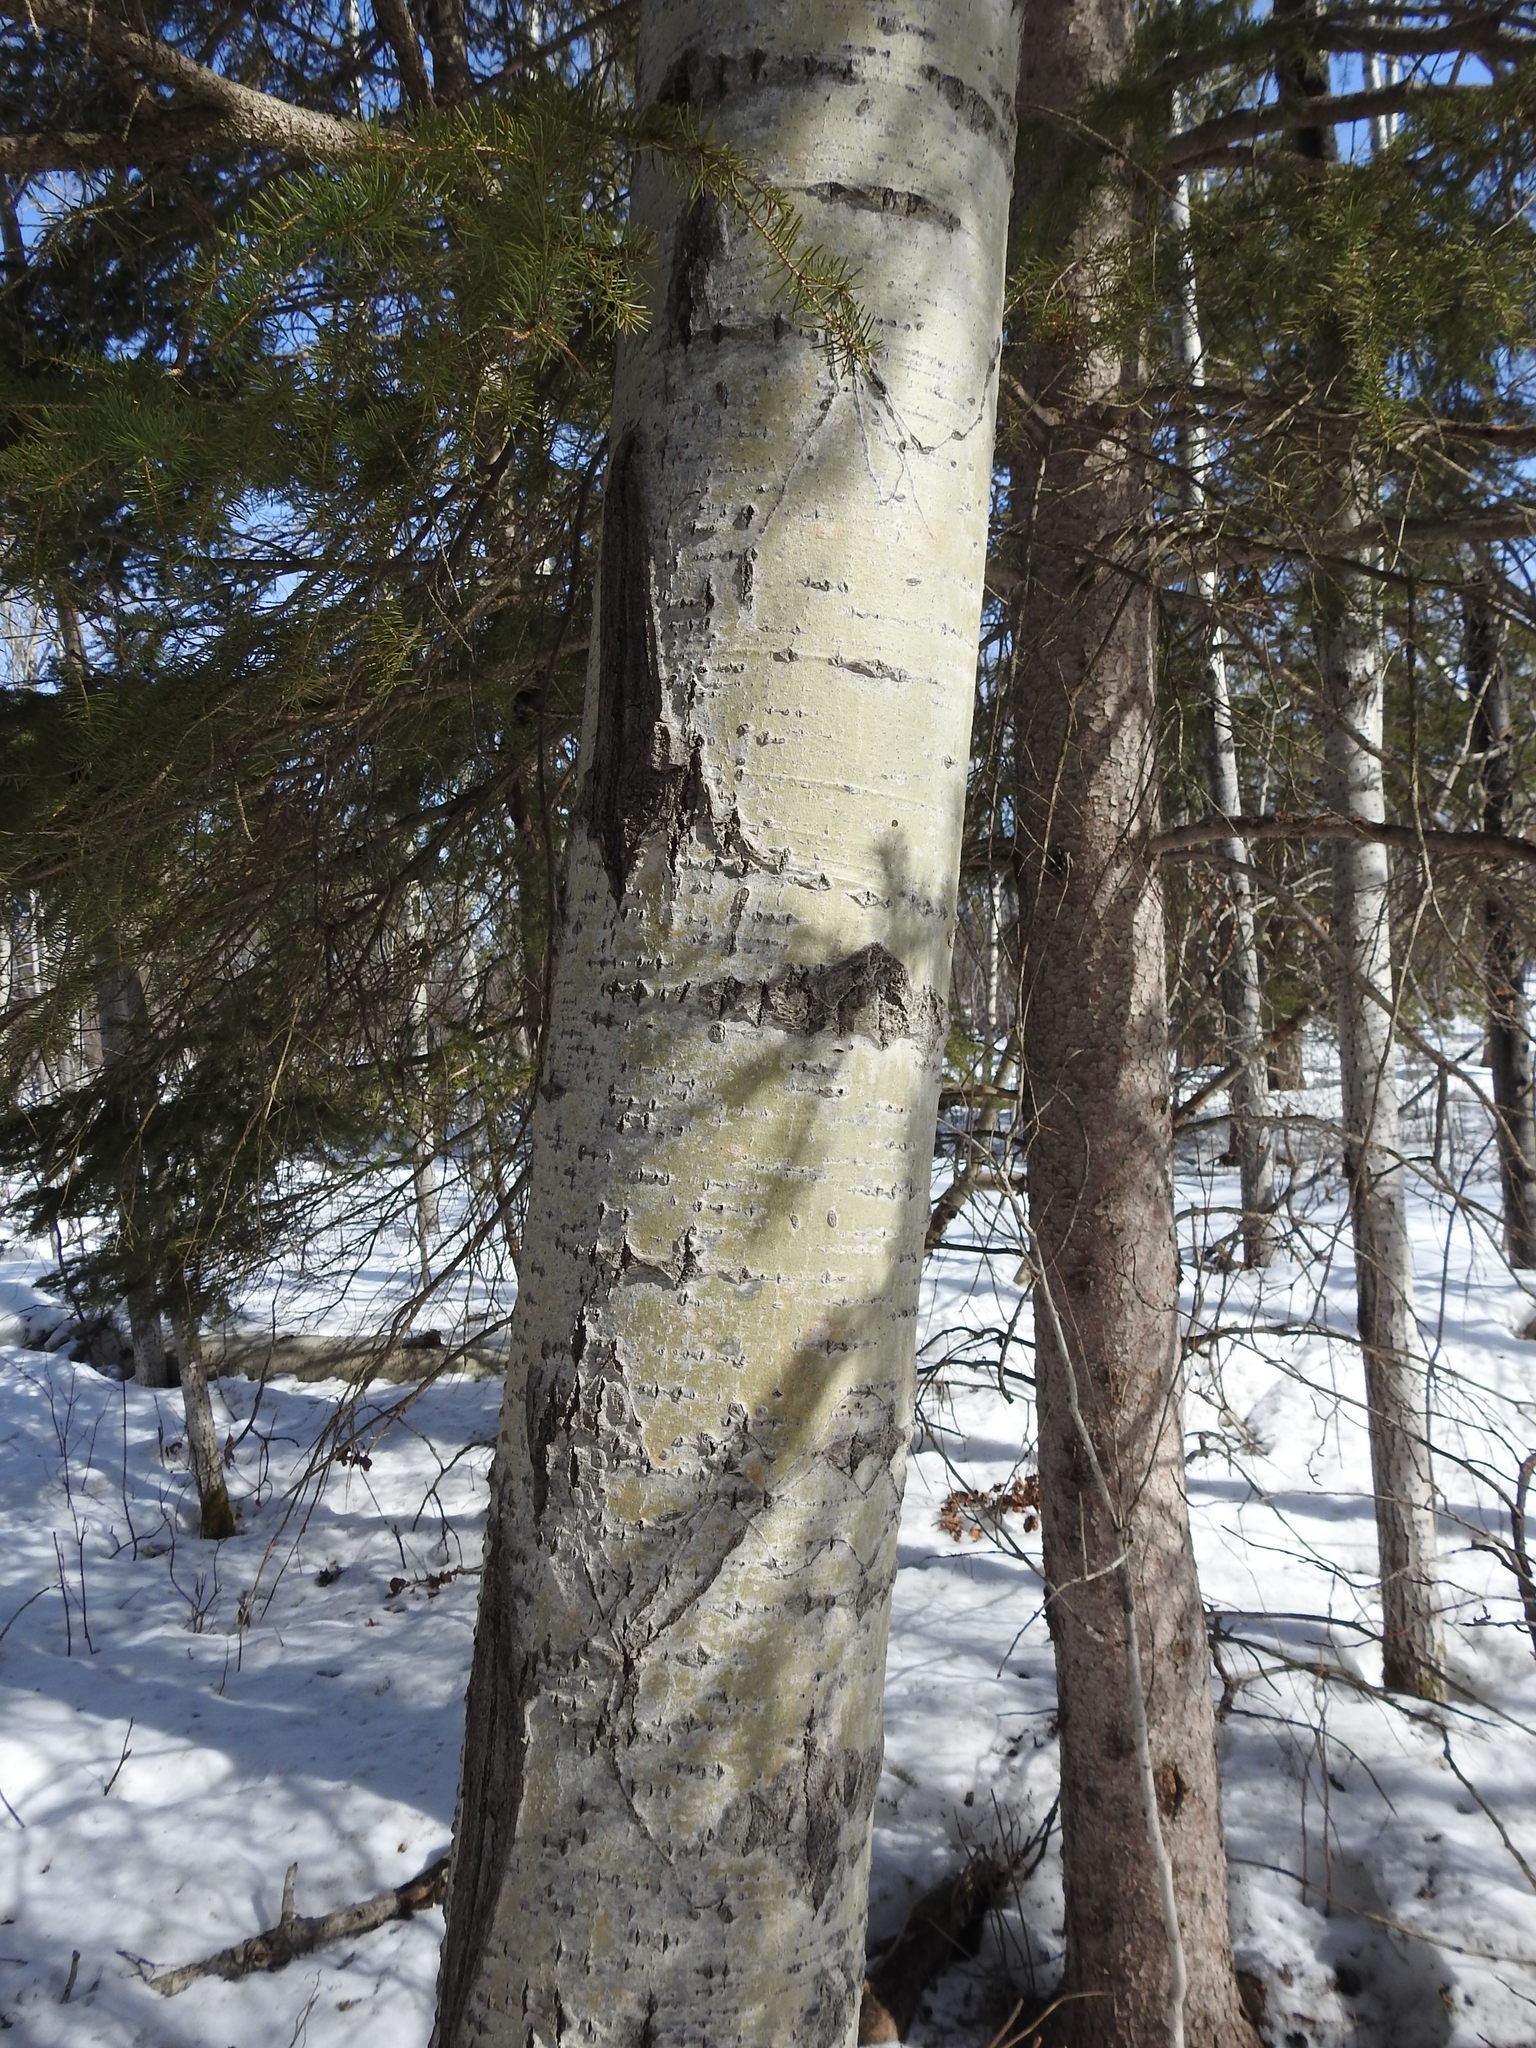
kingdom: Plantae
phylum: Tracheophyta
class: Magnoliopsida
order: Malpighiales
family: Salicaceae
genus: Populus
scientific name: Populus tremuloides
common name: Quaking aspen
